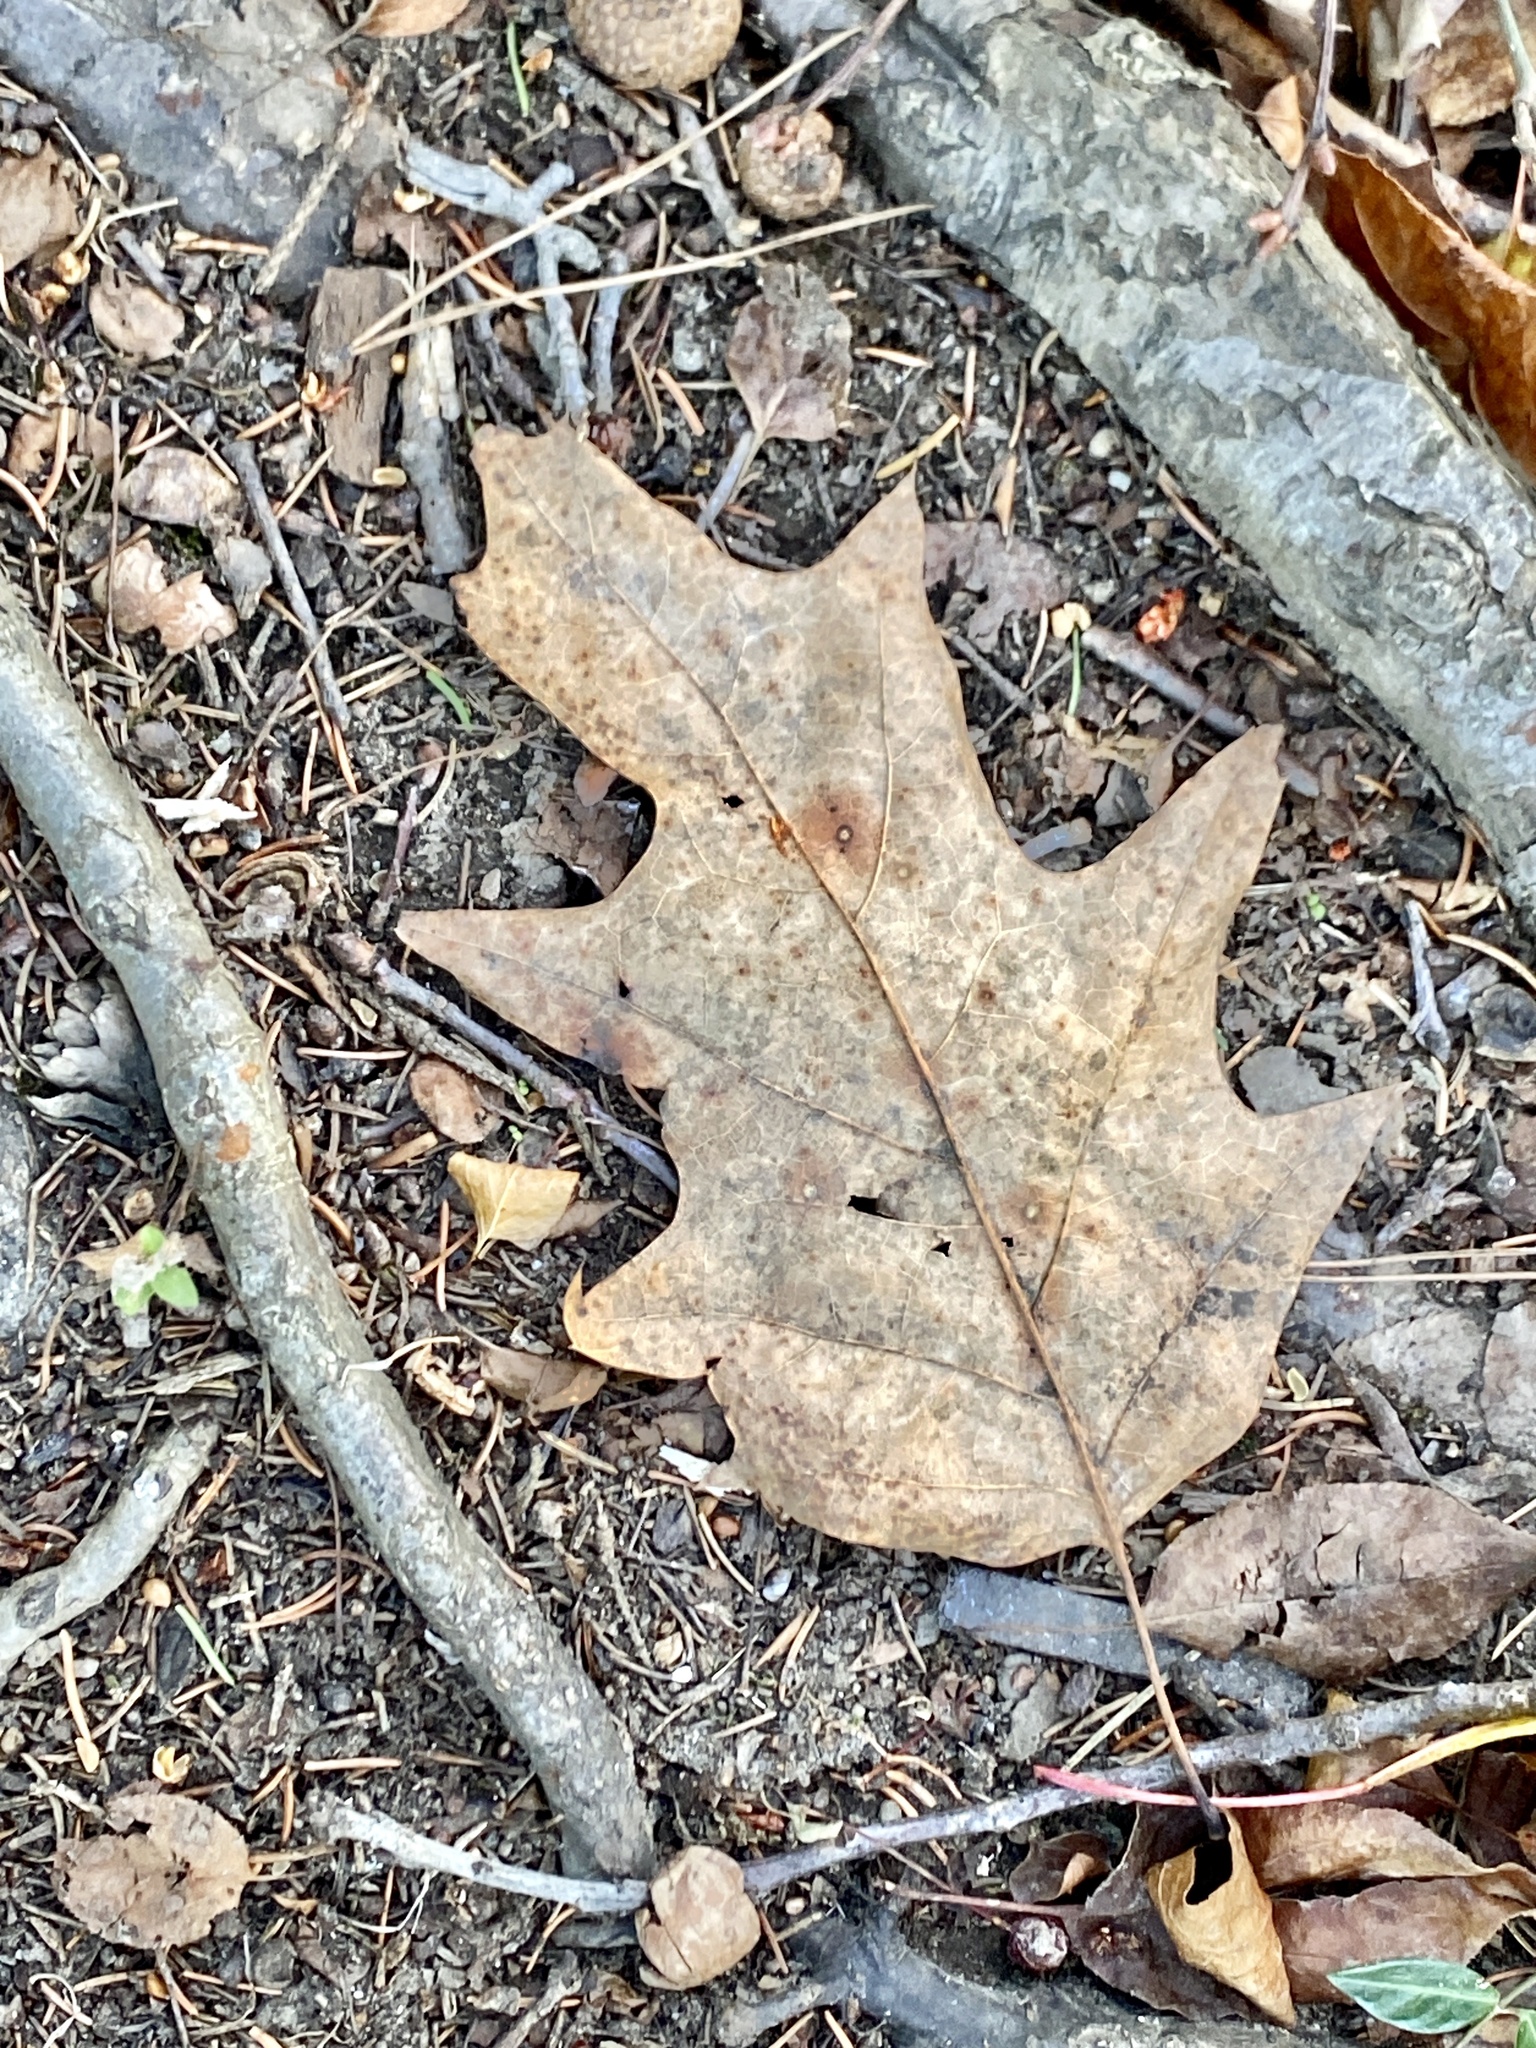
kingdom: Plantae
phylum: Tracheophyta
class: Magnoliopsida
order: Fagales
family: Fagaceae
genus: Quercus
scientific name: Quercus rubra
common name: Red oak
